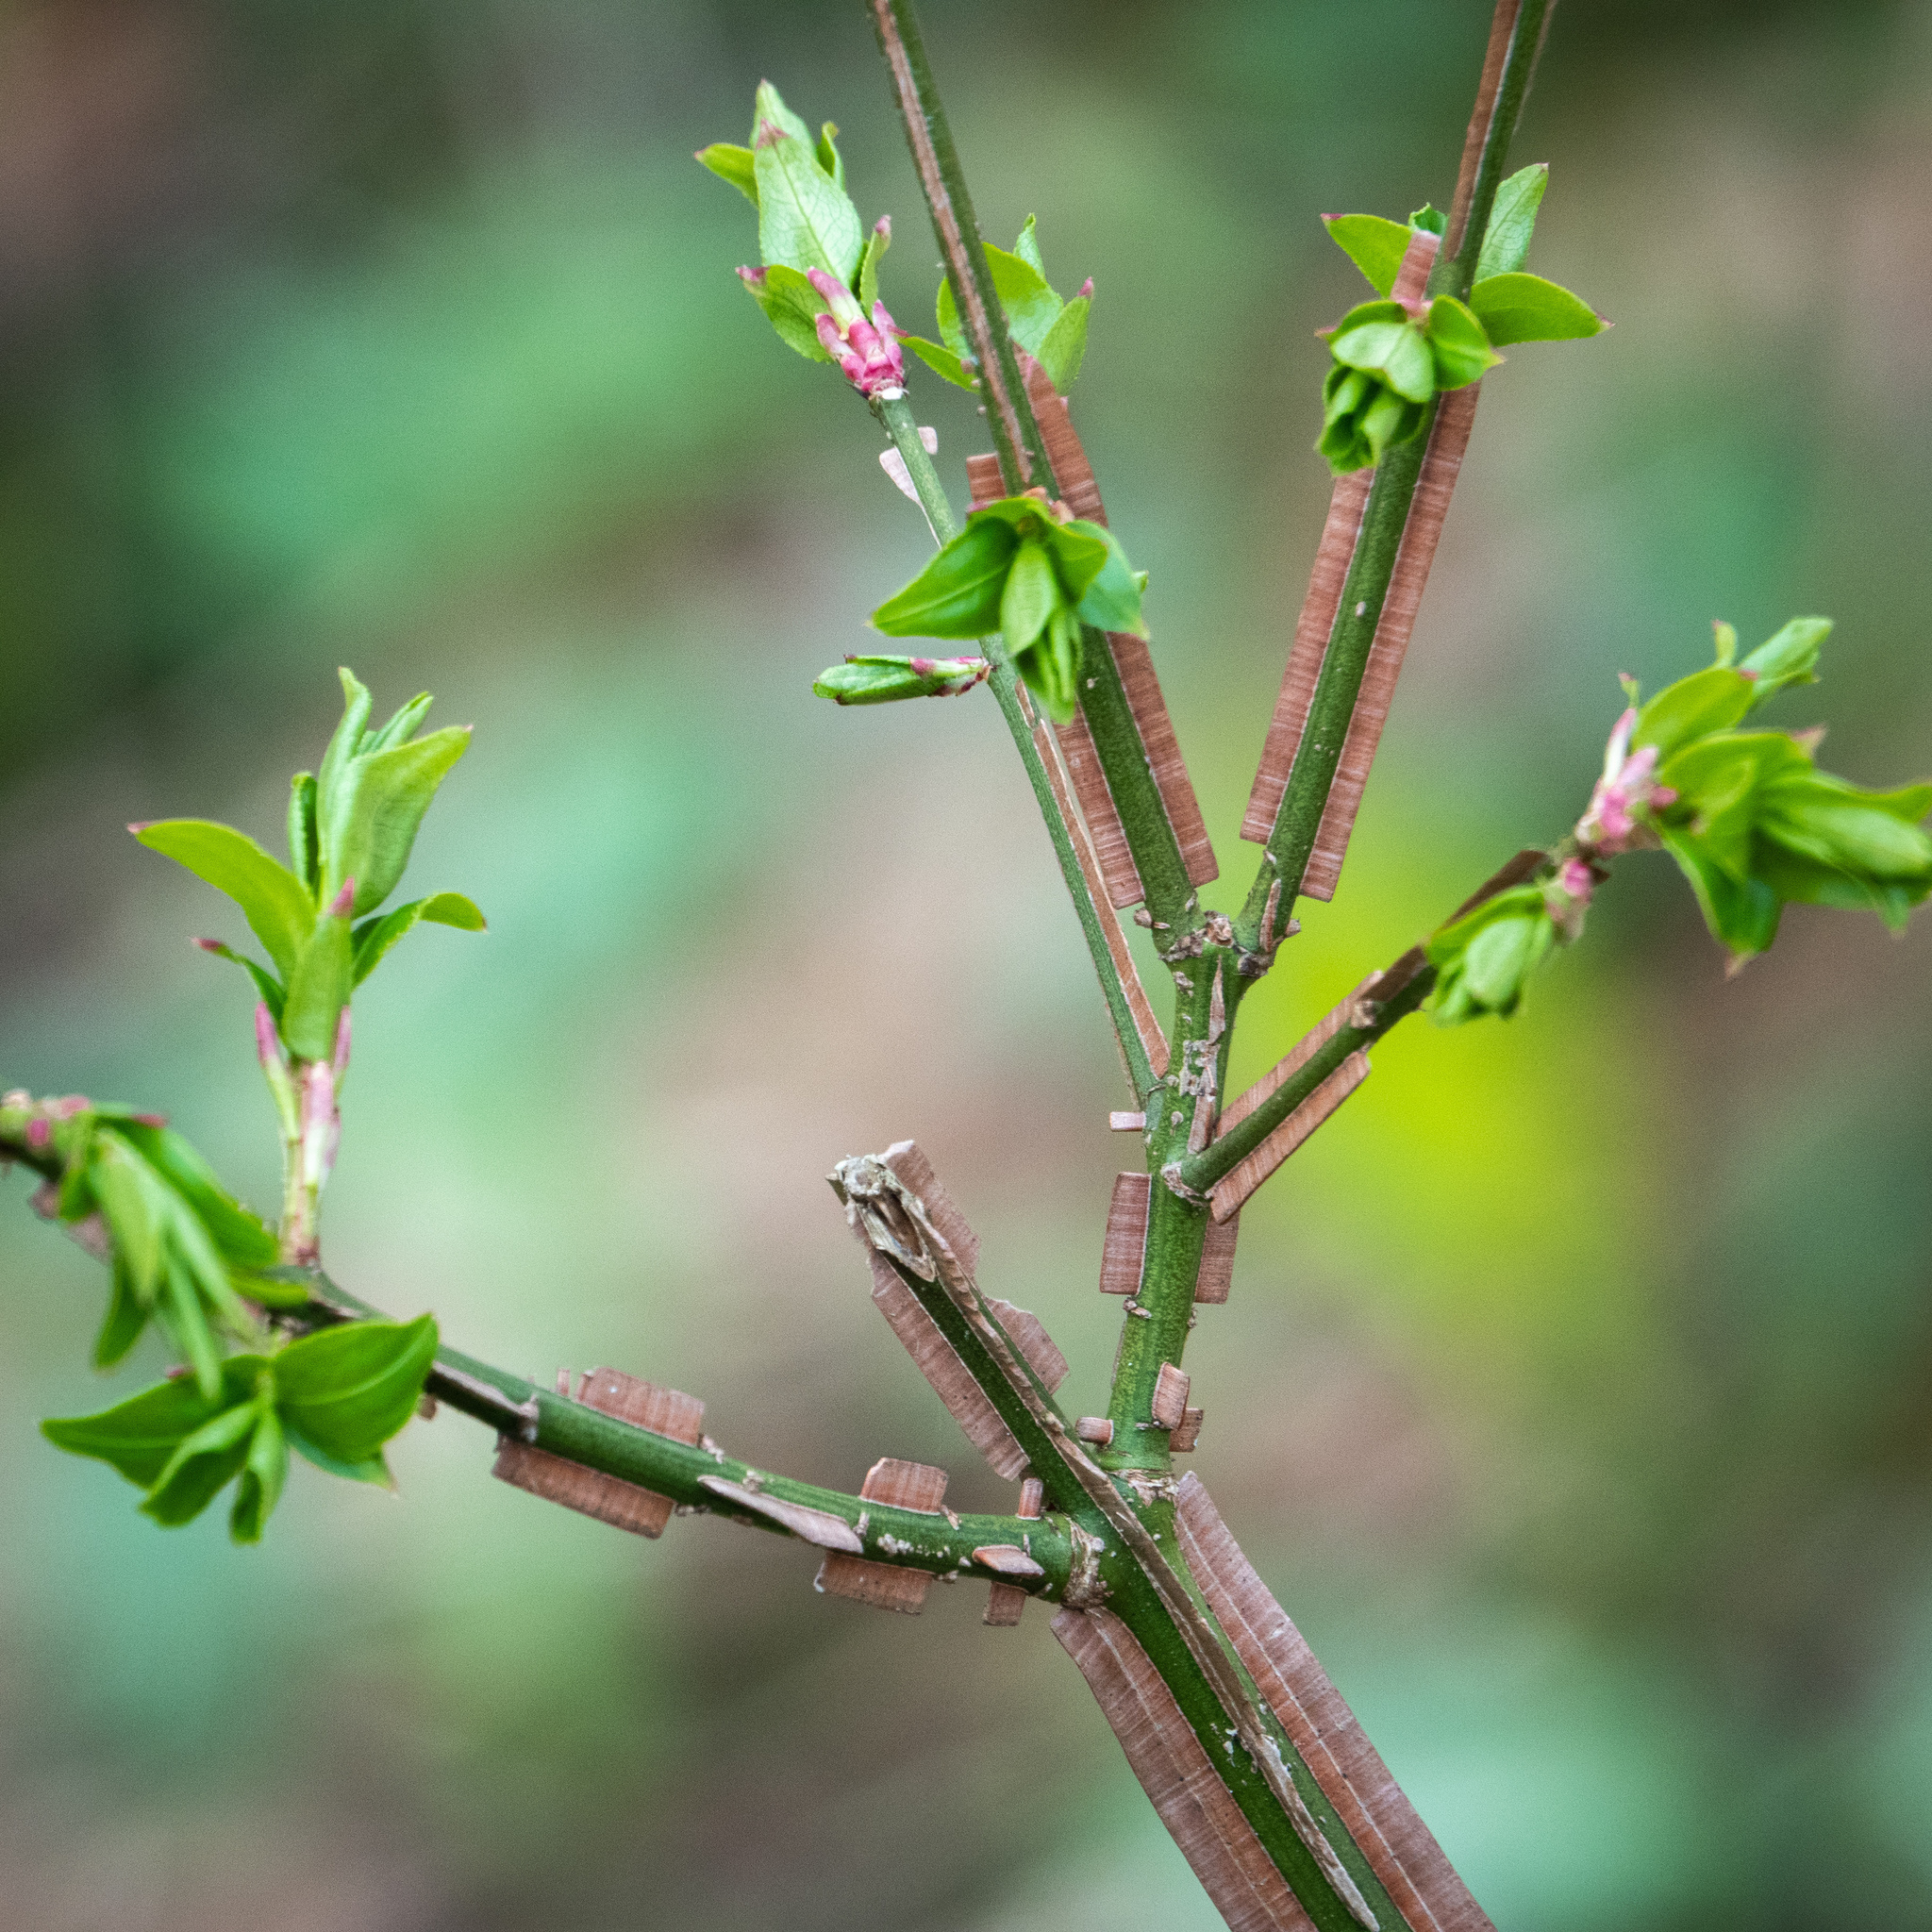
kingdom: Plantae
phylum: Tracheophyta
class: Magnoliopsida
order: Celastrales
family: Celastraceae
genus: Euonymus
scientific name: Euonymus alatus
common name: Winged euonymus
